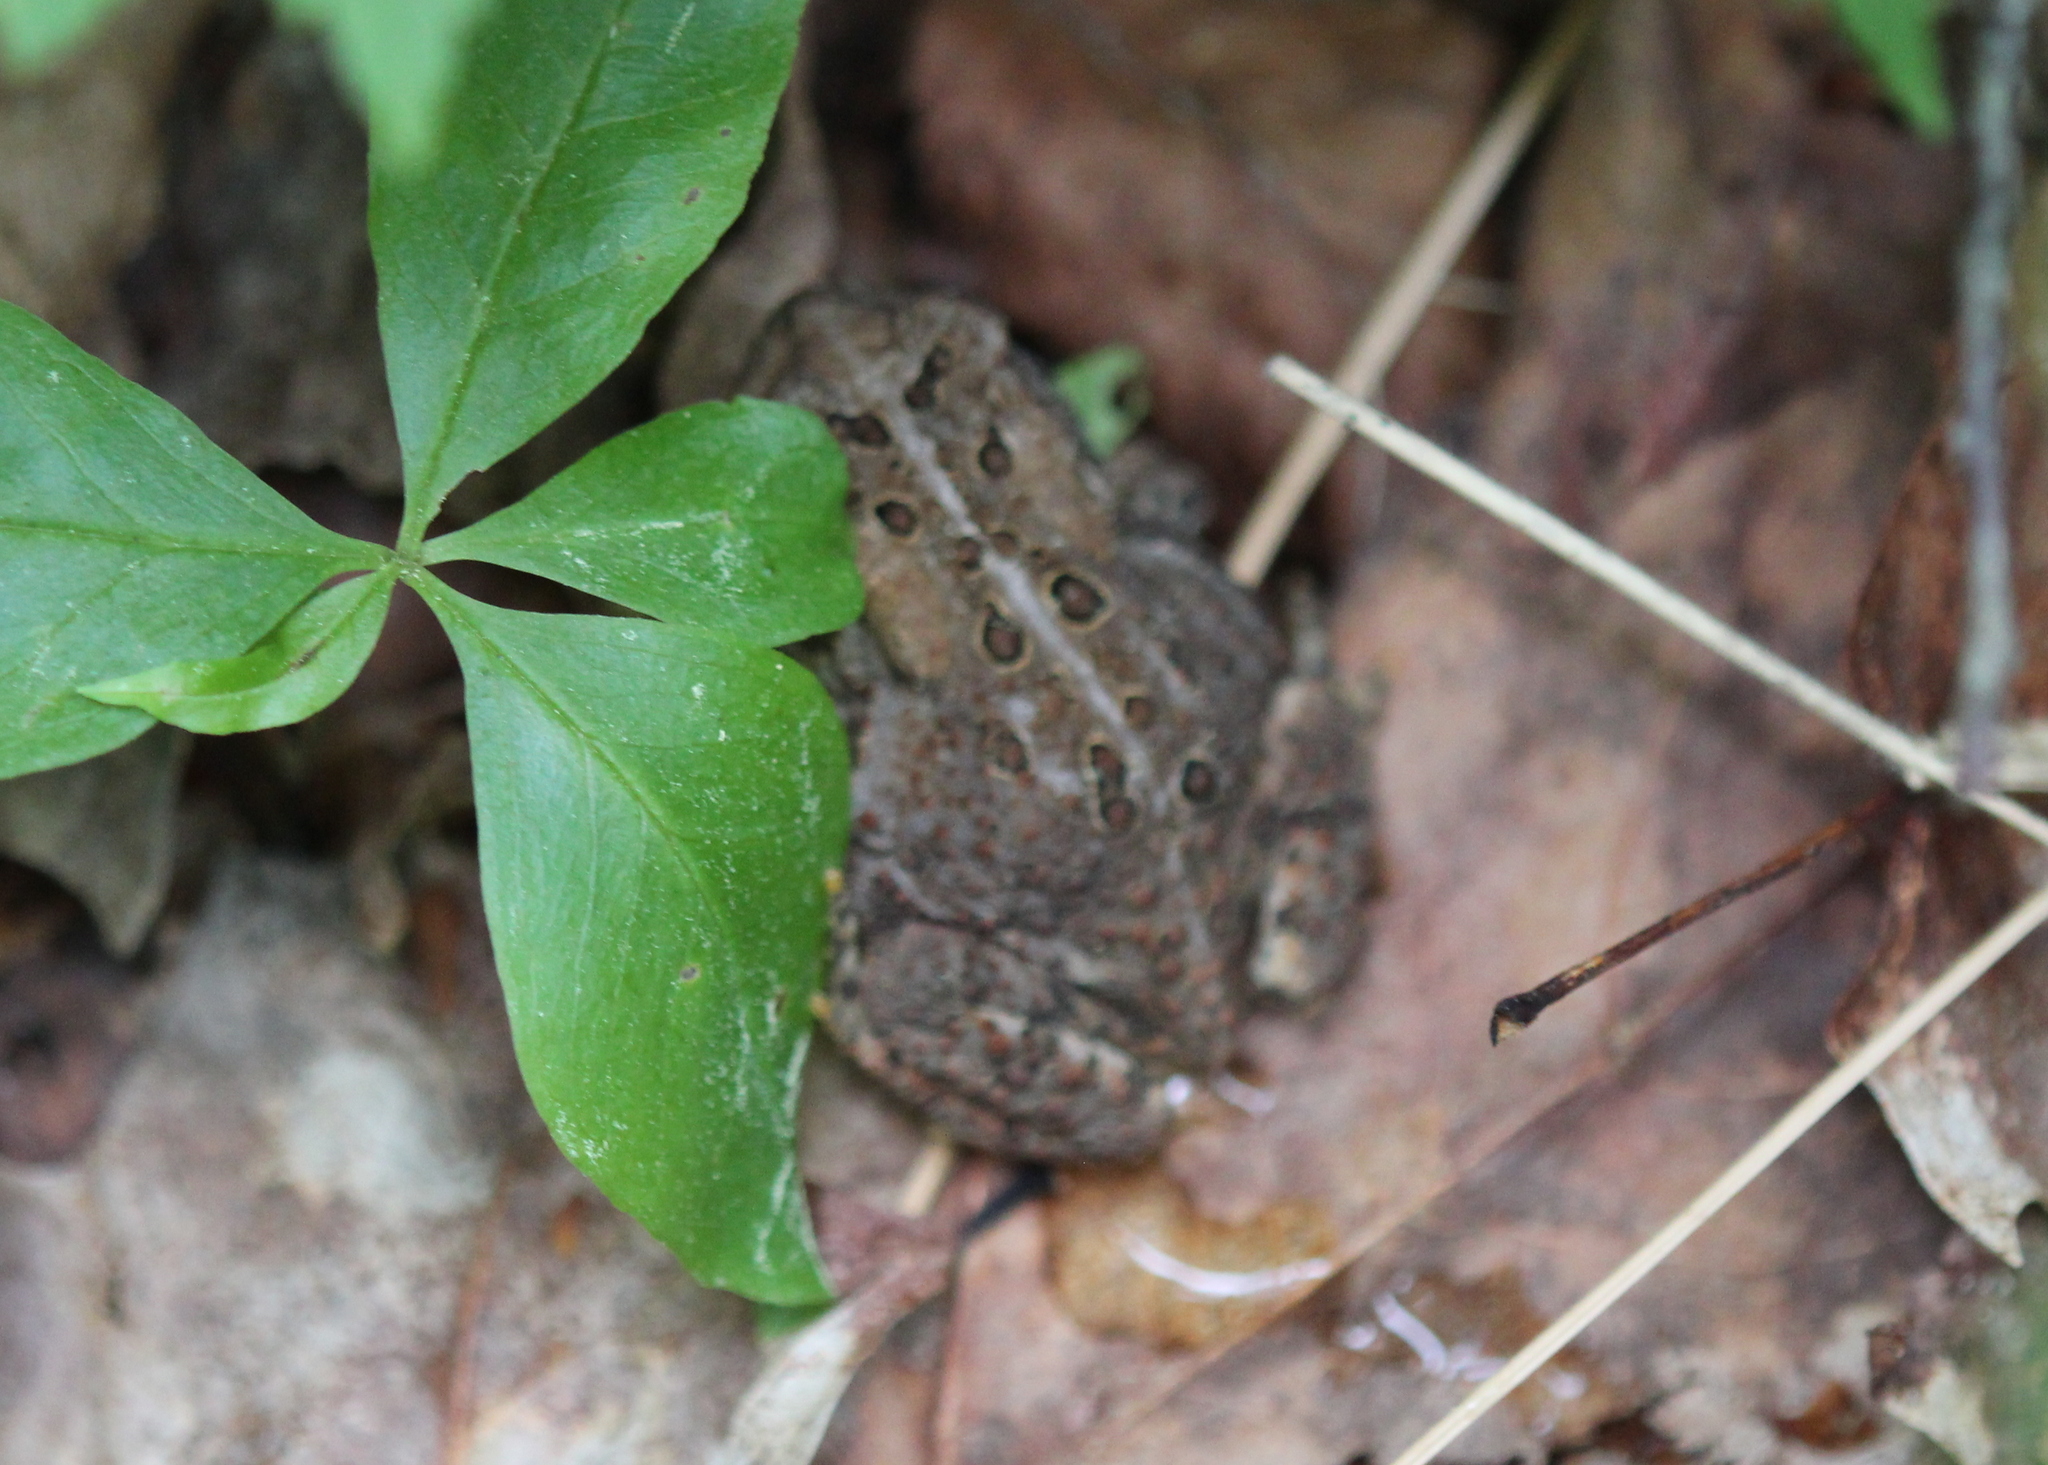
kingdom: Animalia
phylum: Chordata
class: Amphibia
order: Anura
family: Bufonidae
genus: Anaxyrus
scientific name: Anaxyrus americanus
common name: American toad
